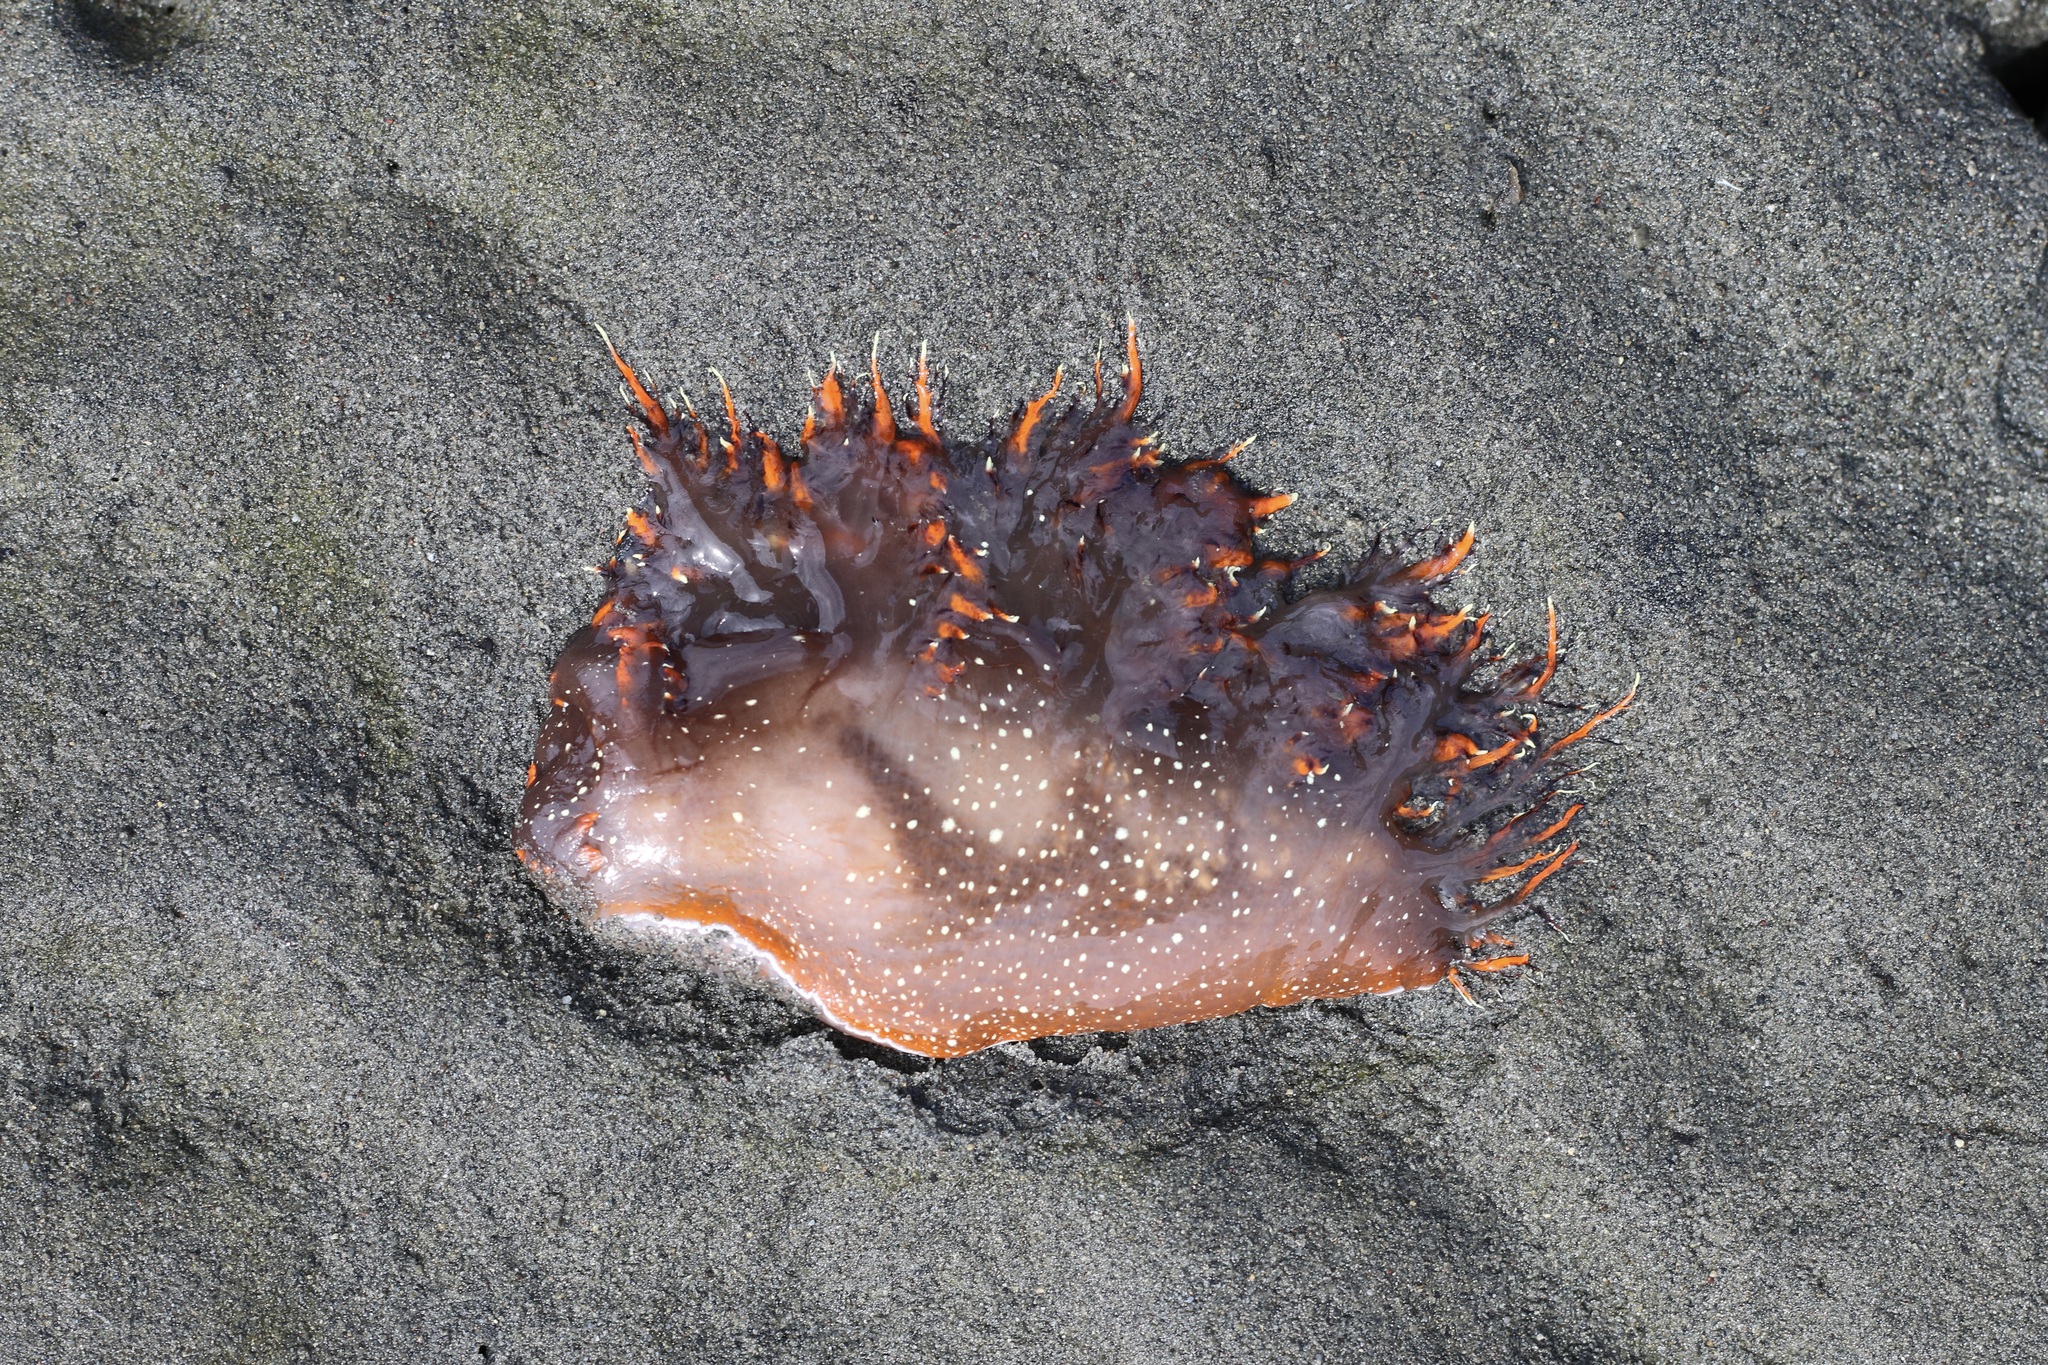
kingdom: Animalia
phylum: Mollusca
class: Gastropoda
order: Nudibranchia
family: Dendronotidae
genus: Dendronotus
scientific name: Dendronotus iris
